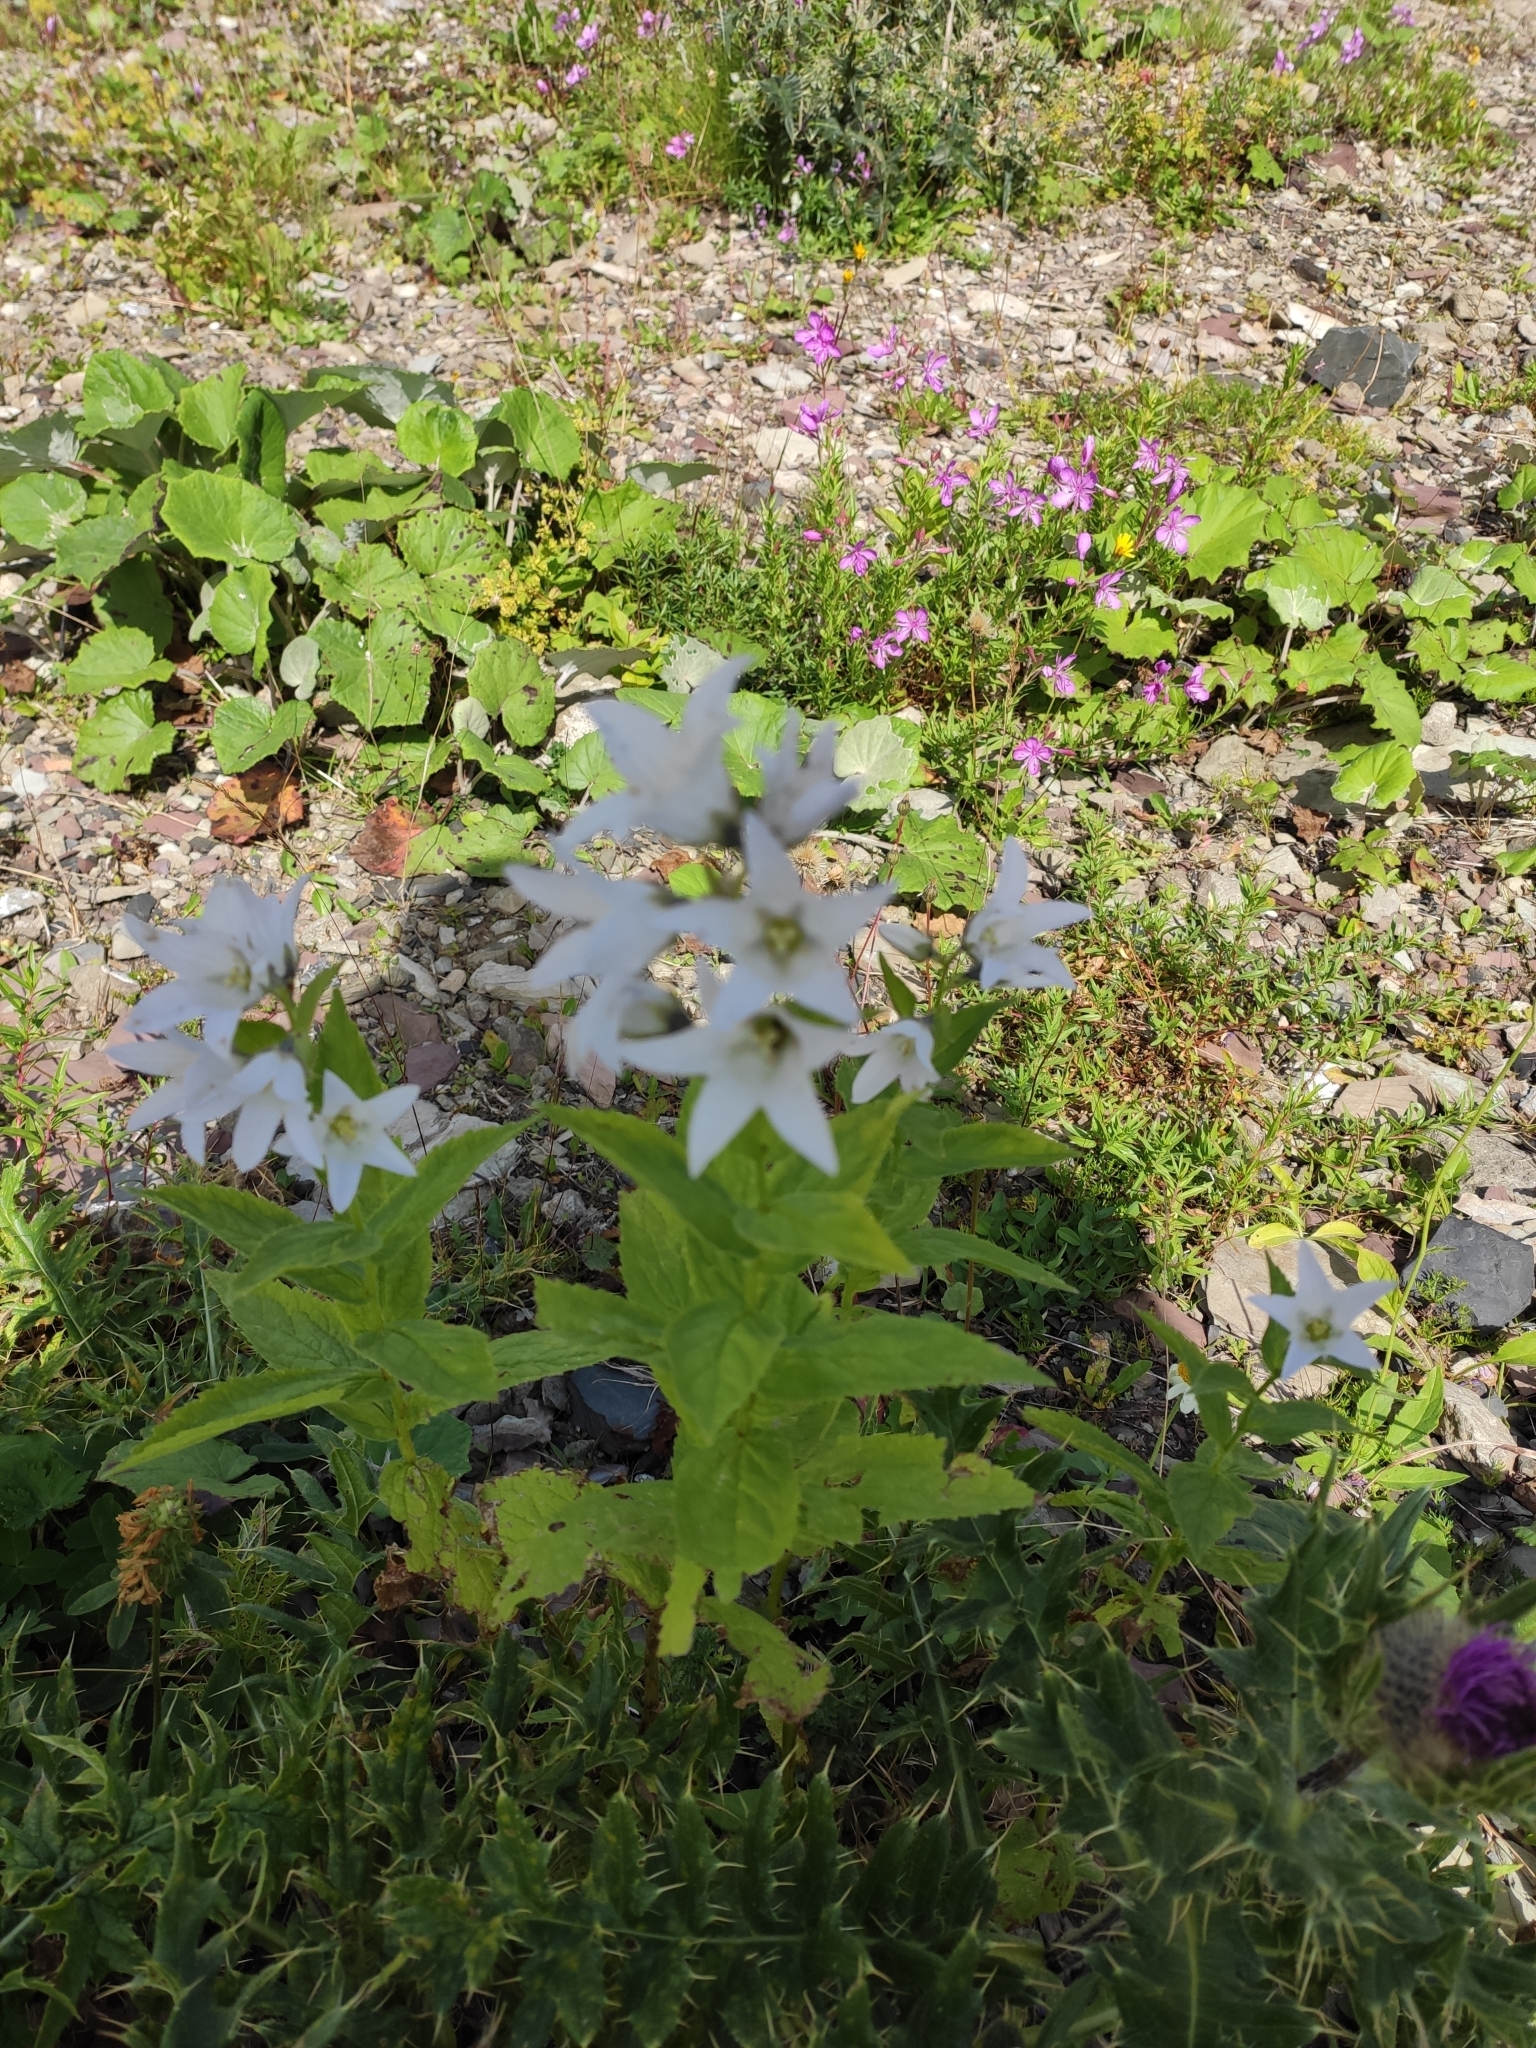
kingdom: Plantae
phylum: Tracheophyta
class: Magnoliopsida
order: Asterales
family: Campanulaceae
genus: Campanula
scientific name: Campanula lactiflora
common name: Milky bellflower
